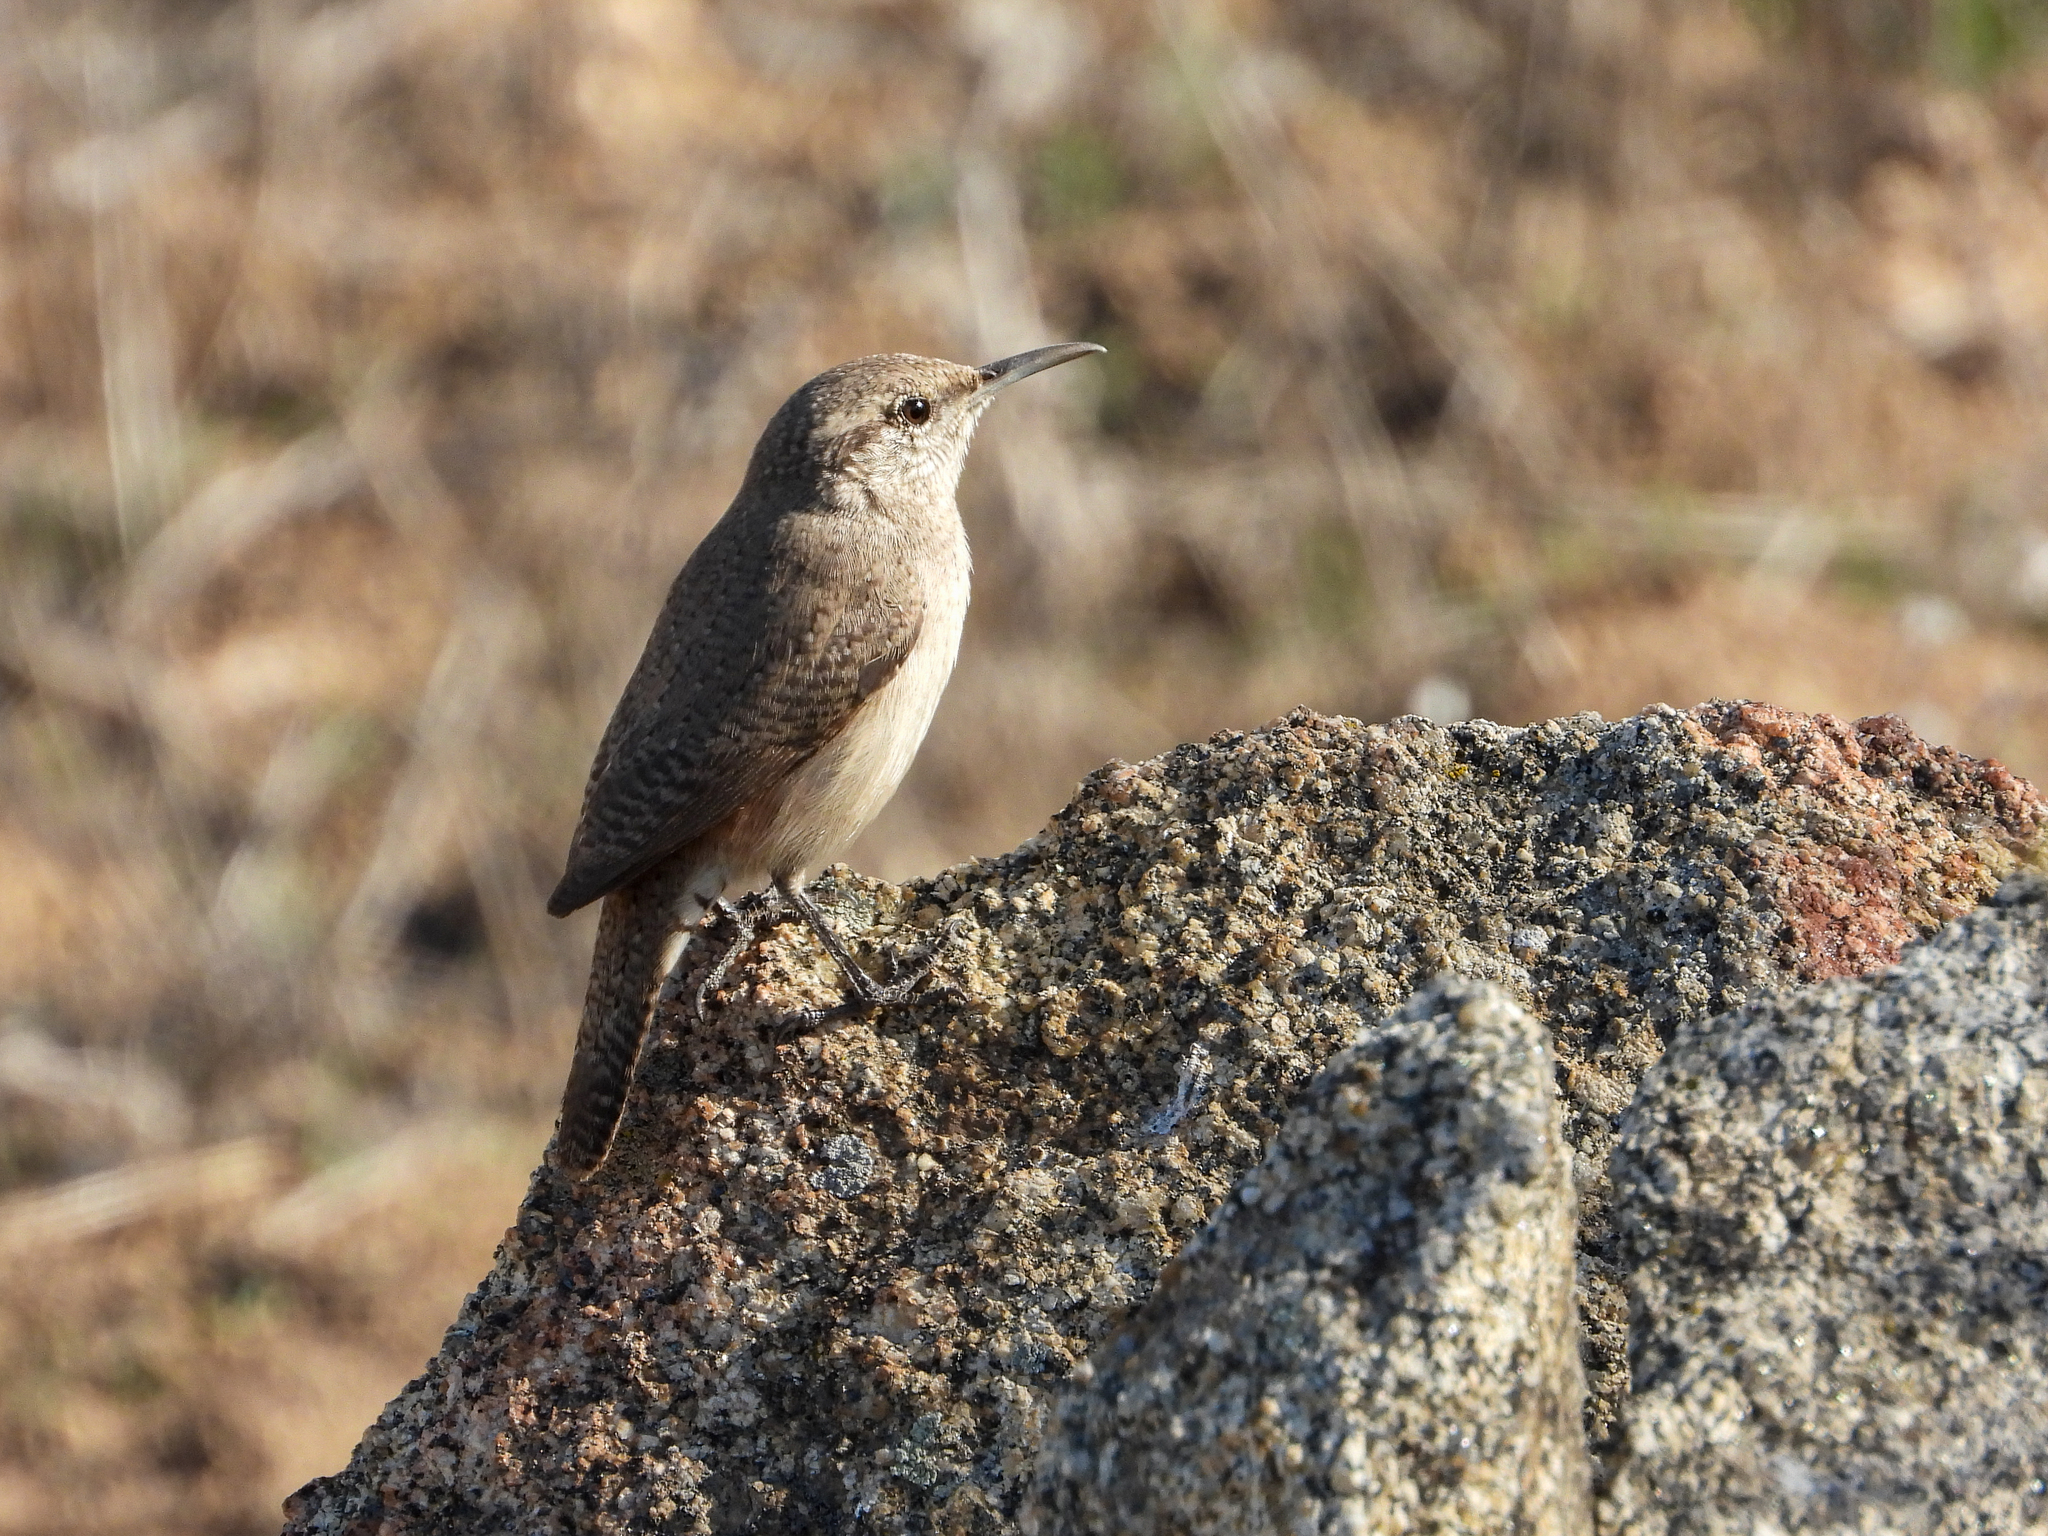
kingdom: Animalia
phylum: Chordata
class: Aves
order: Passeriformes
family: Troglodytidae
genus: Salpinctes
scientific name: Salpinctes obsoletus
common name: Rock wren
